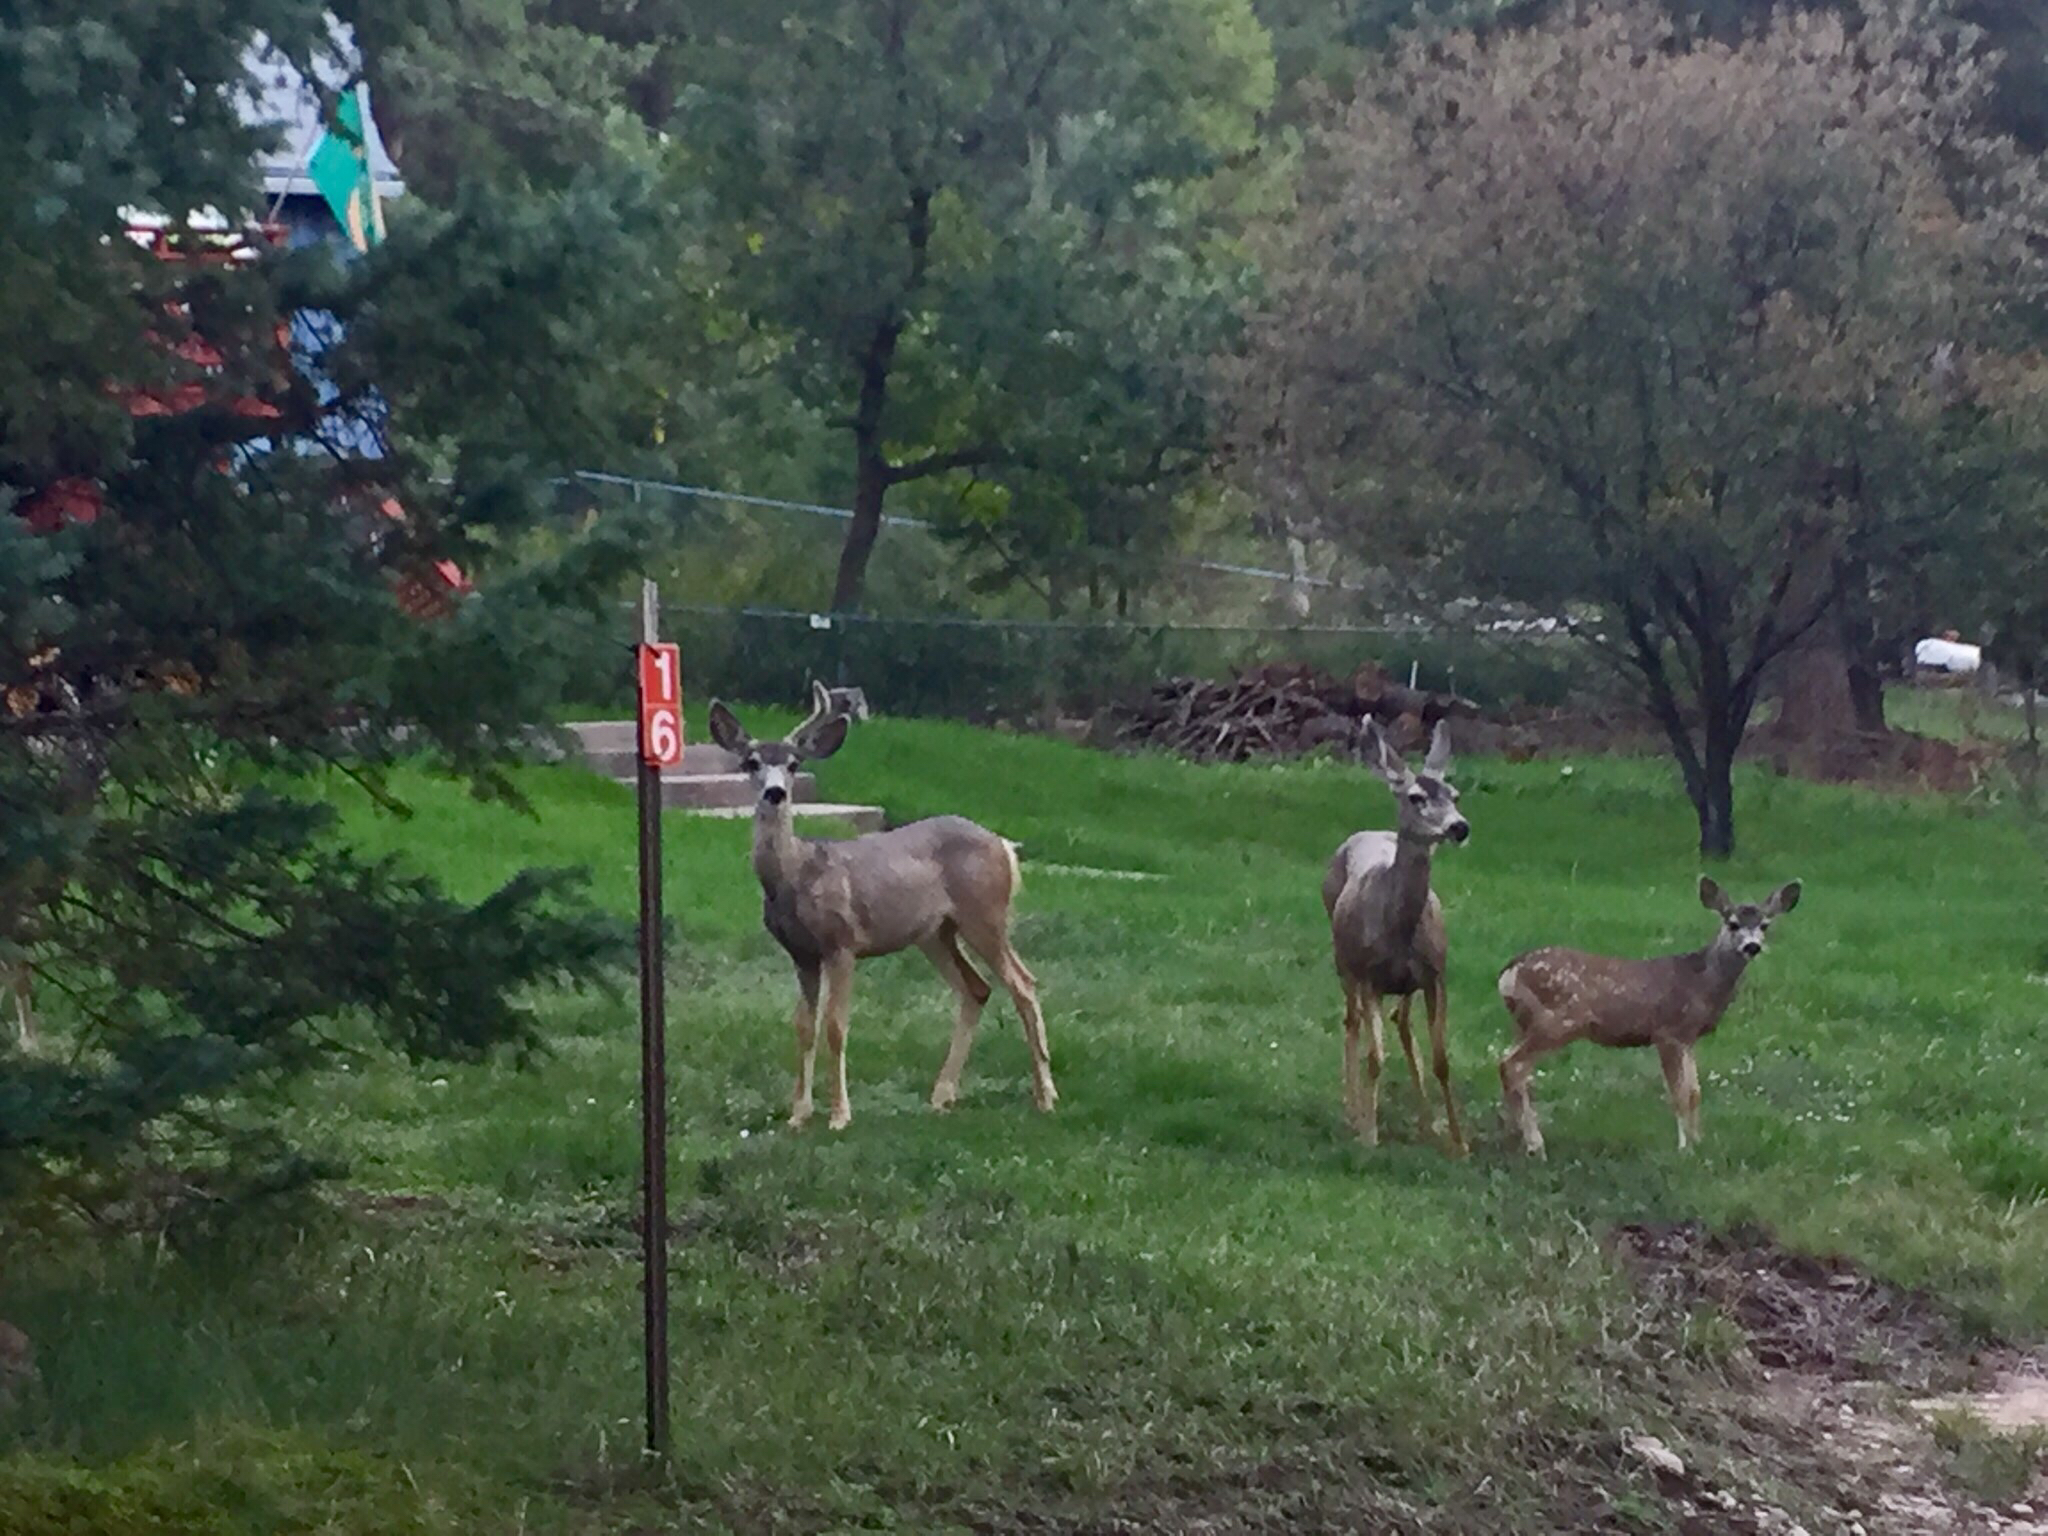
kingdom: Animalia
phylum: Chordata
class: Mammalia
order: Artiodactyla
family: Cervidae
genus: Odocoileus
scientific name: Odocoileus hemionus
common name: Mule deer
